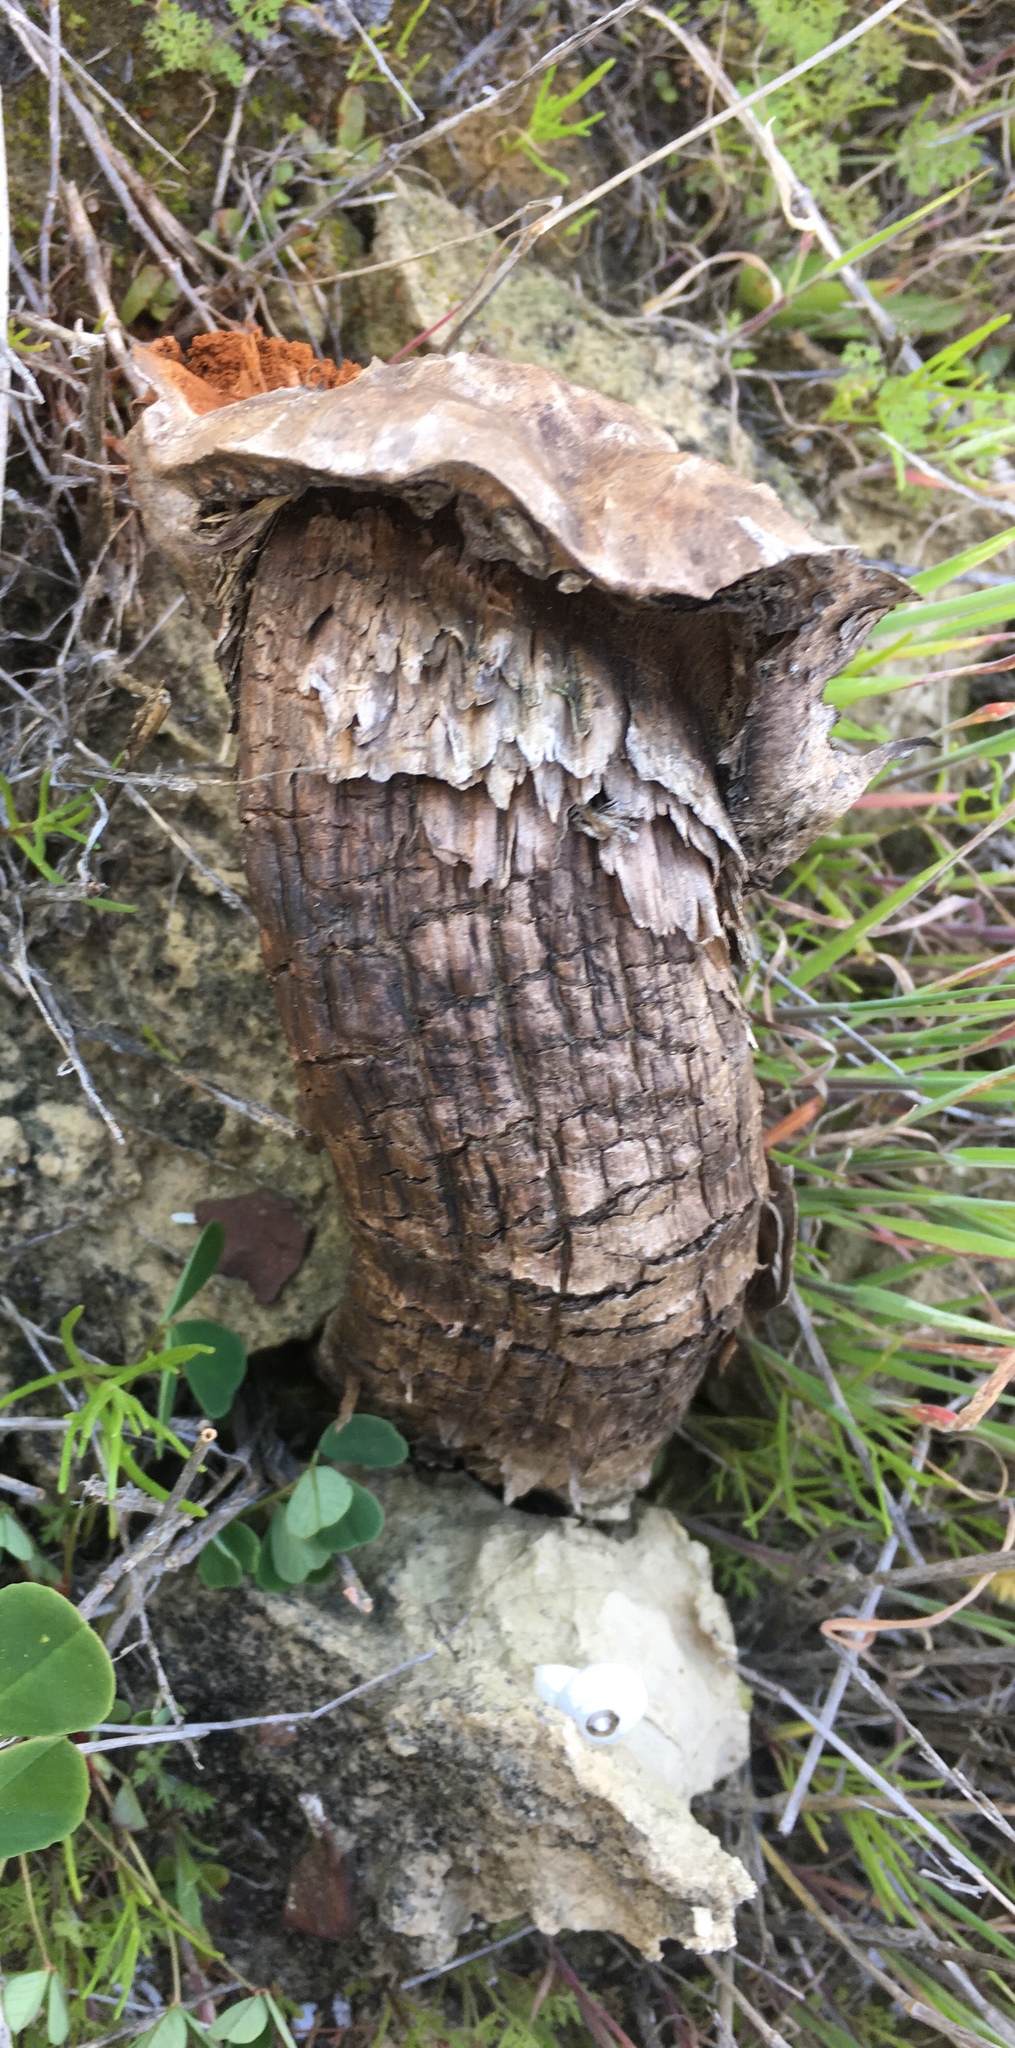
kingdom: Fungi
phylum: Basidiomycota
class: Agaricomycetes
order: Agaricales
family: Agaricaceae
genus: Dictyocephalos
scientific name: Dictyocephalos attenuatus
